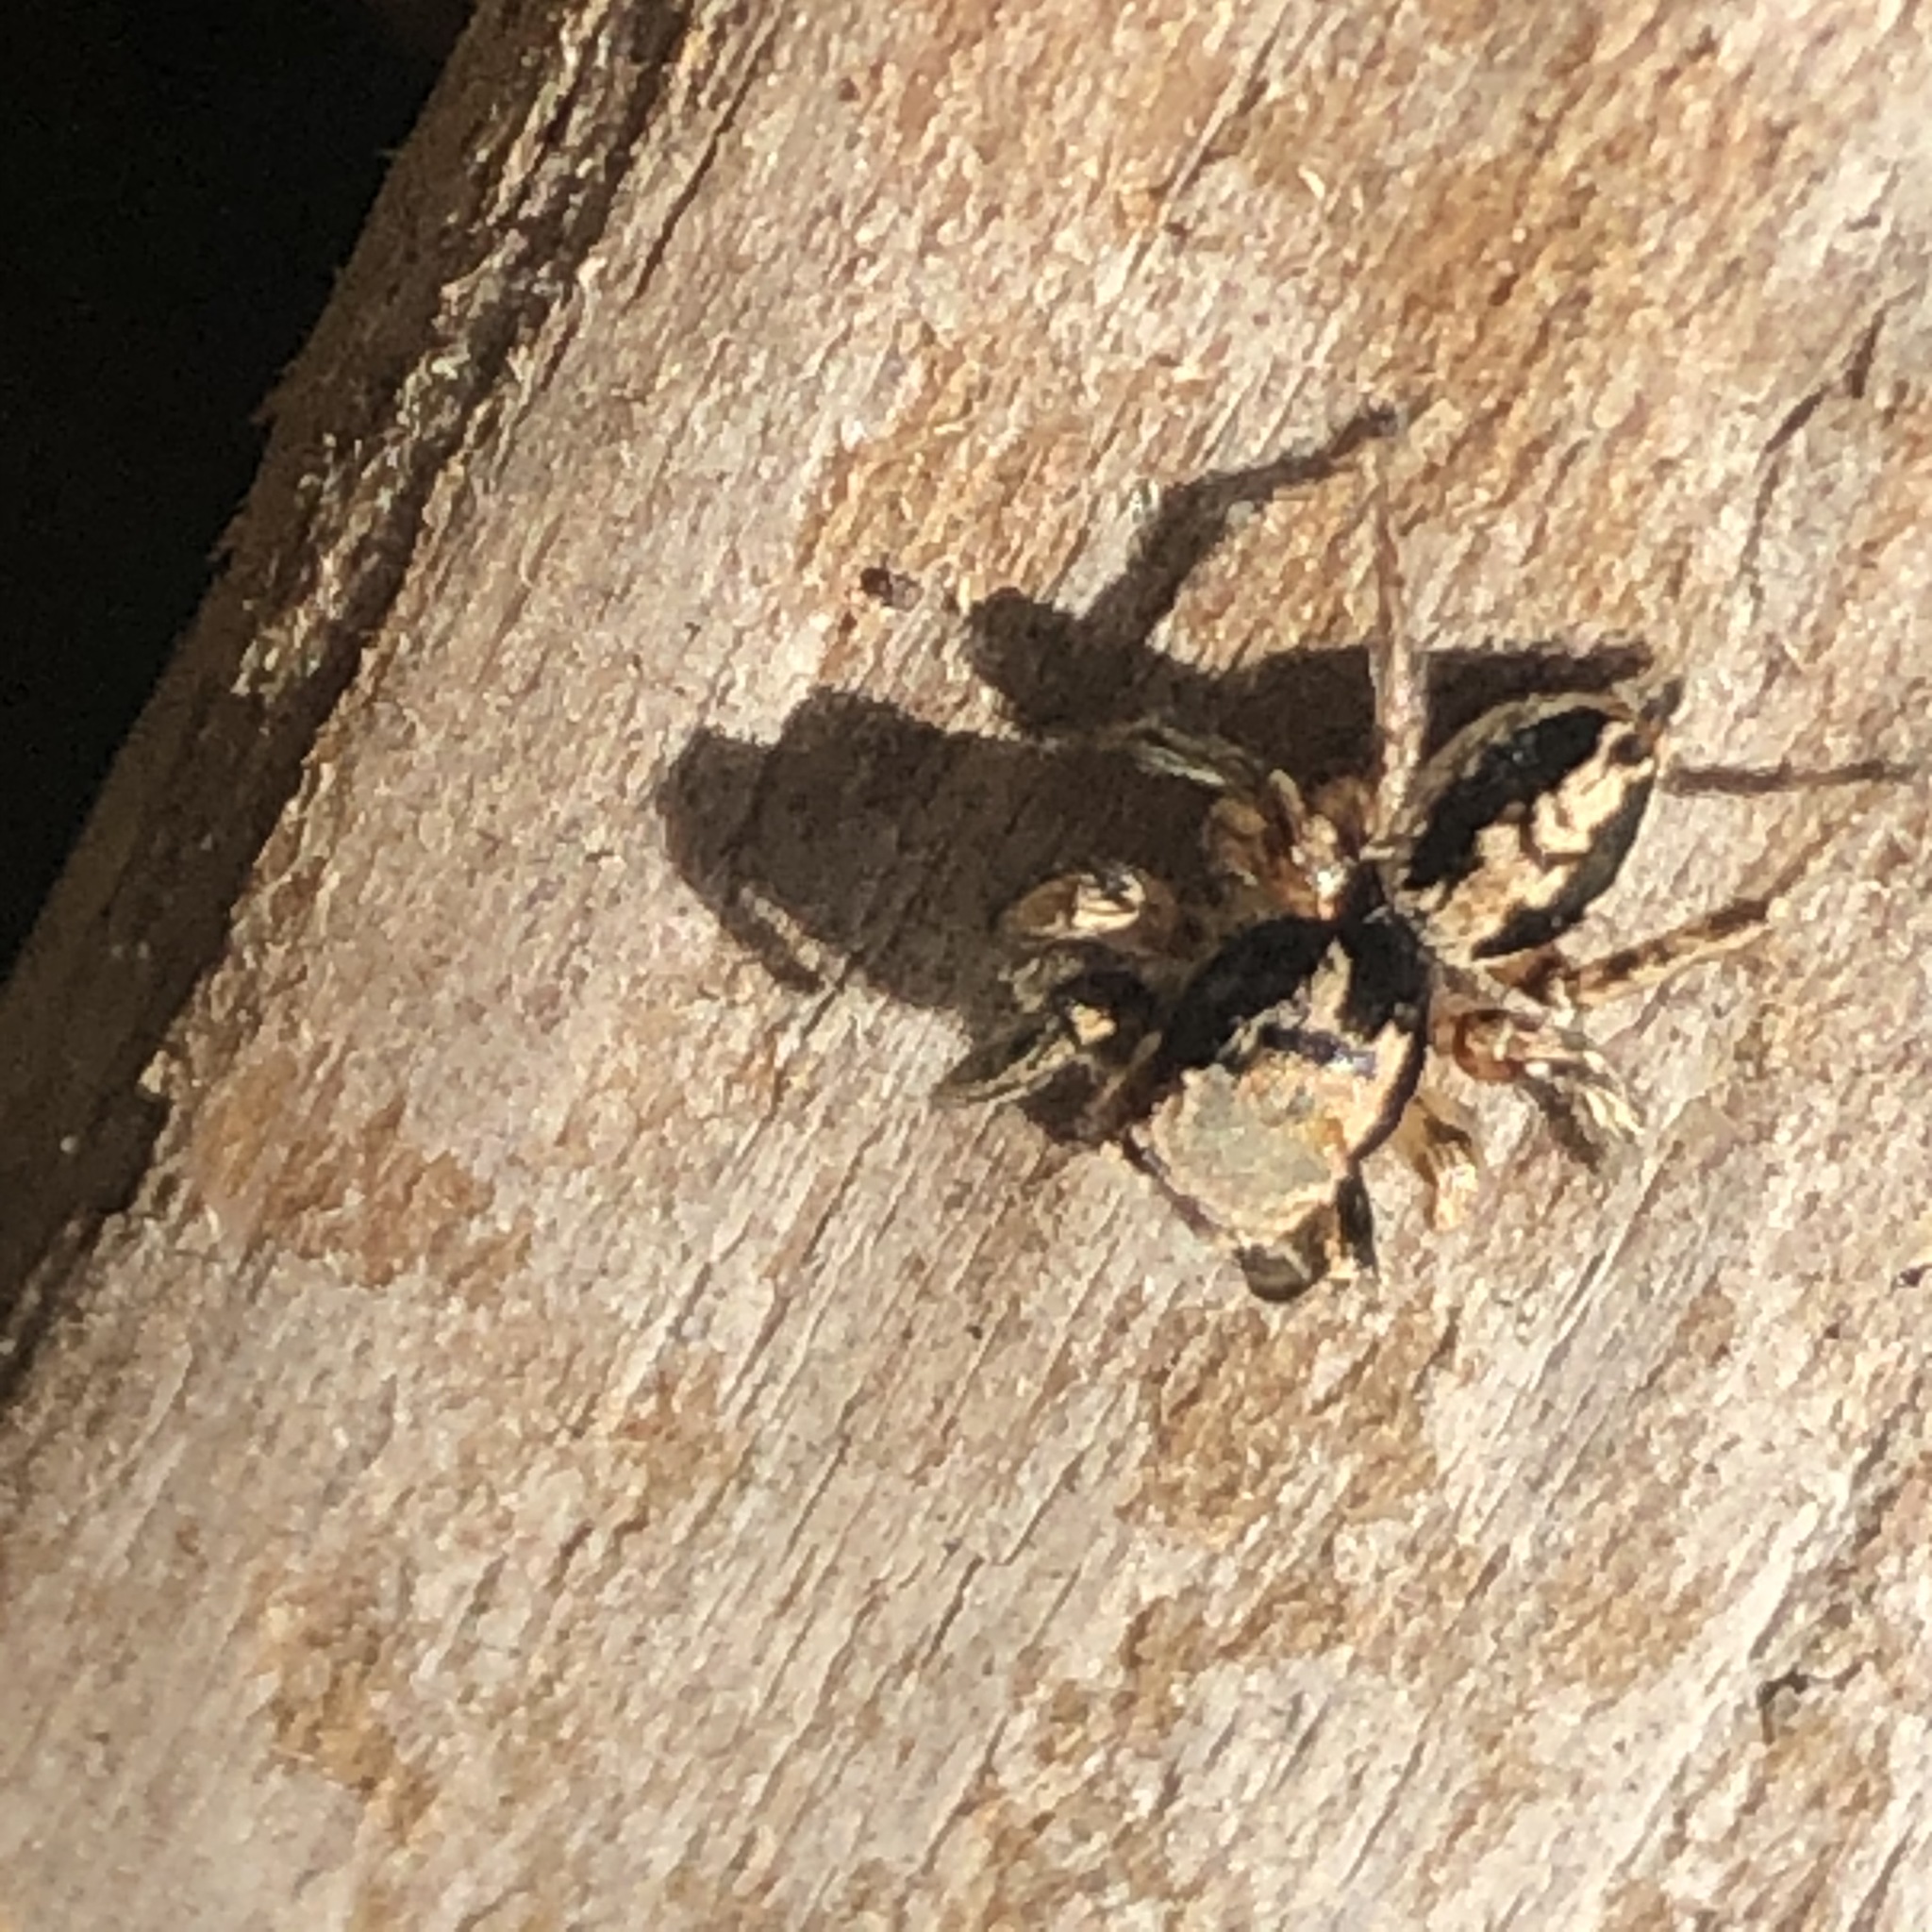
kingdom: Animalia
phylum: Arthropoda
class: Arachnida
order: Araneae
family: Salticidae
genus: Habronattus
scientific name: Habronattus pyrrithrix
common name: Jumping spider
